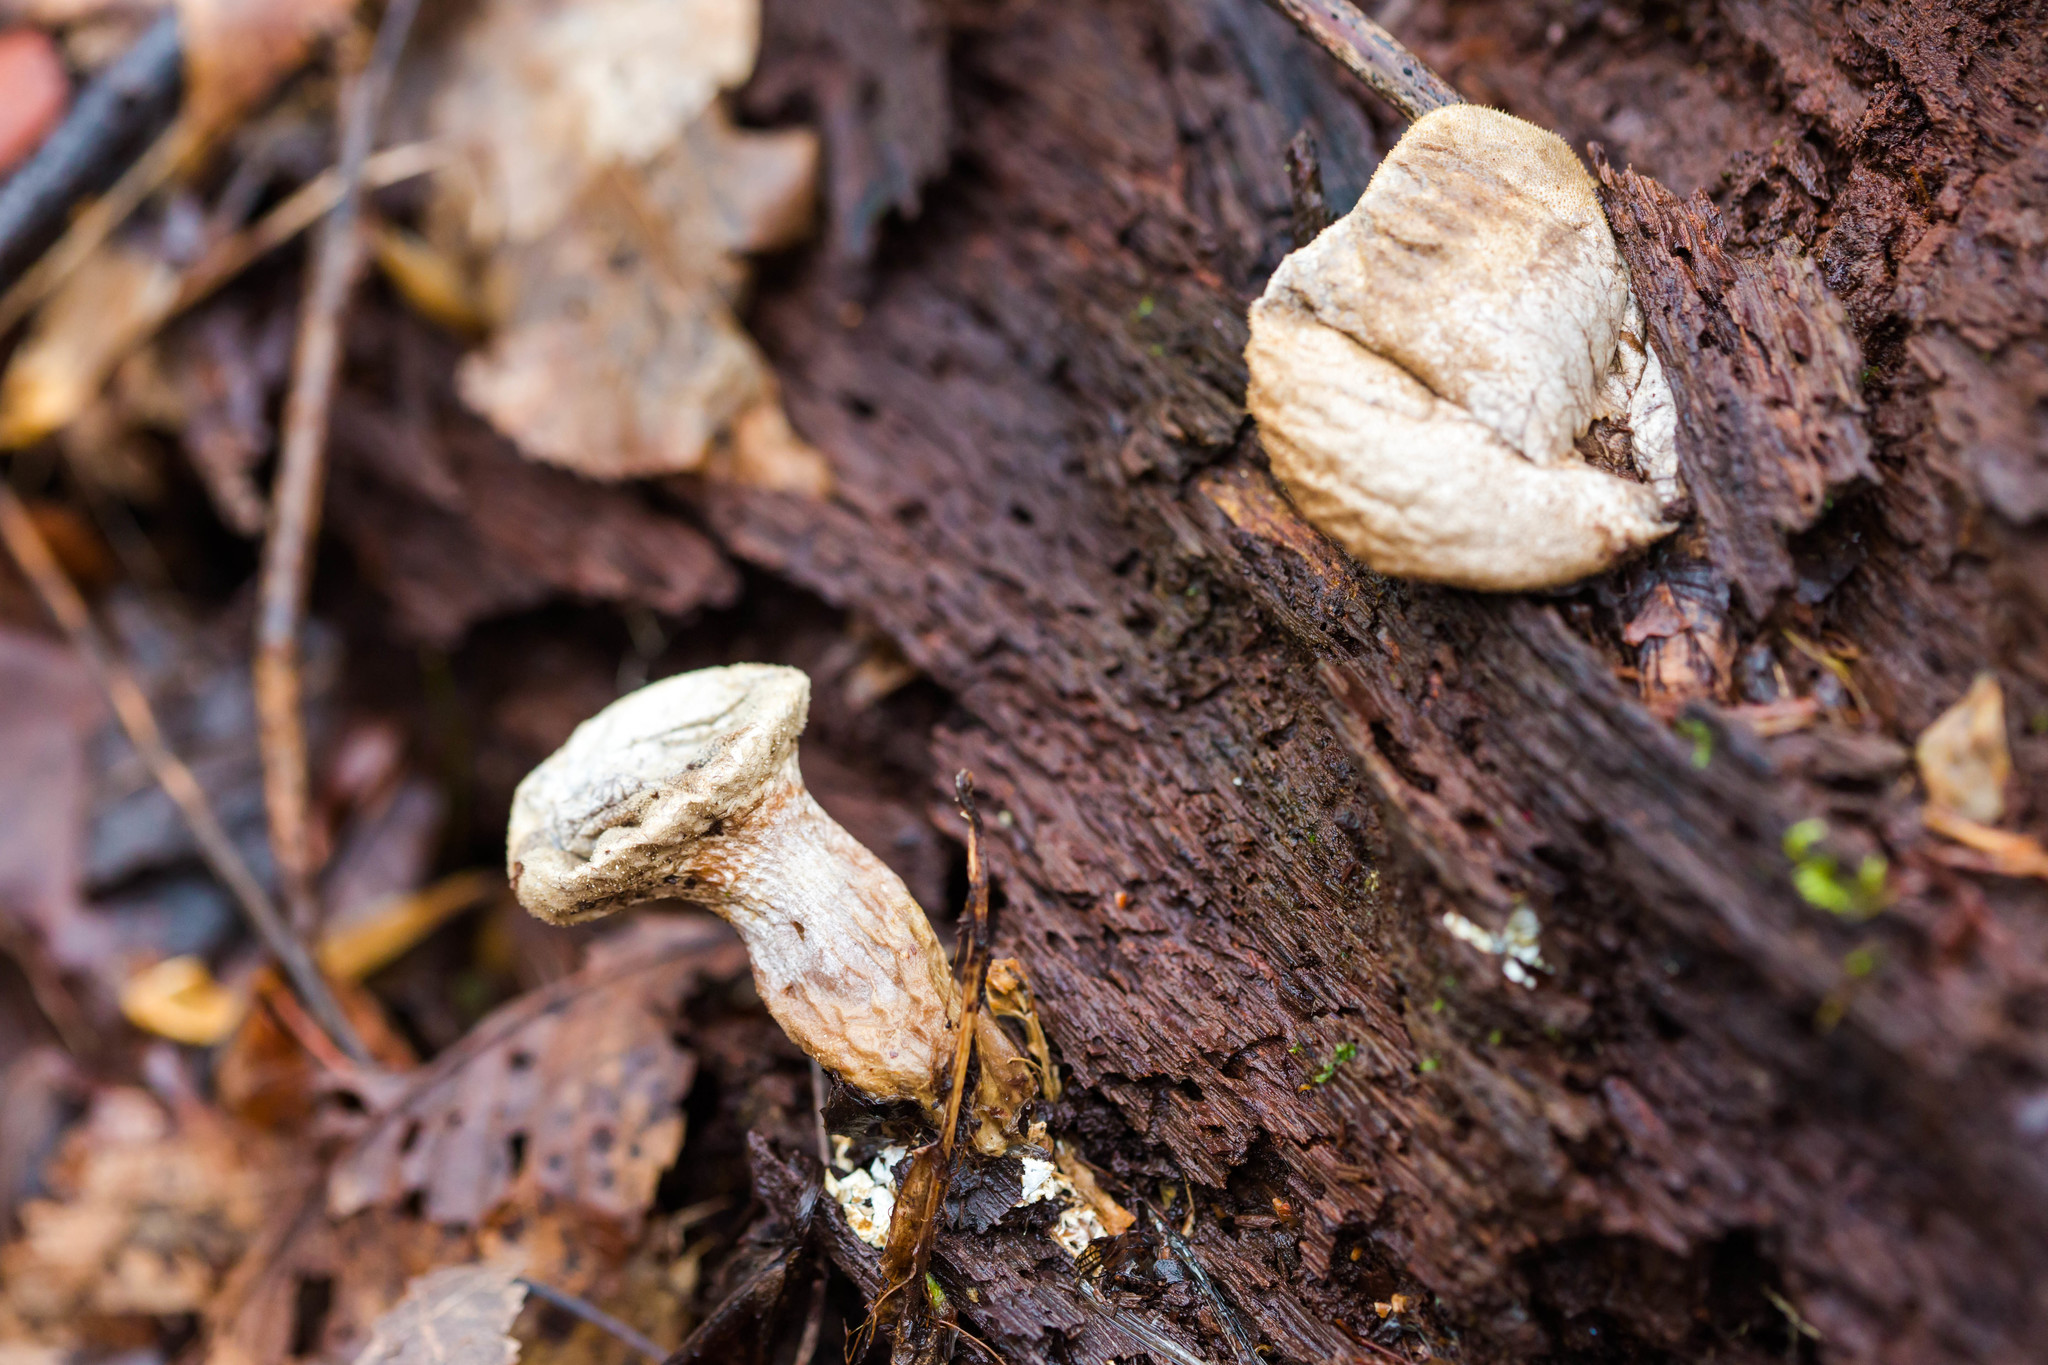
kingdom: Fungi
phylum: Basidiomycota
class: Agaricomycetes
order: Agaricales
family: Lycoperdaceae
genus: Apioperdon
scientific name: Apioperdon pyriforme
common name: Pear-shaped puffball
